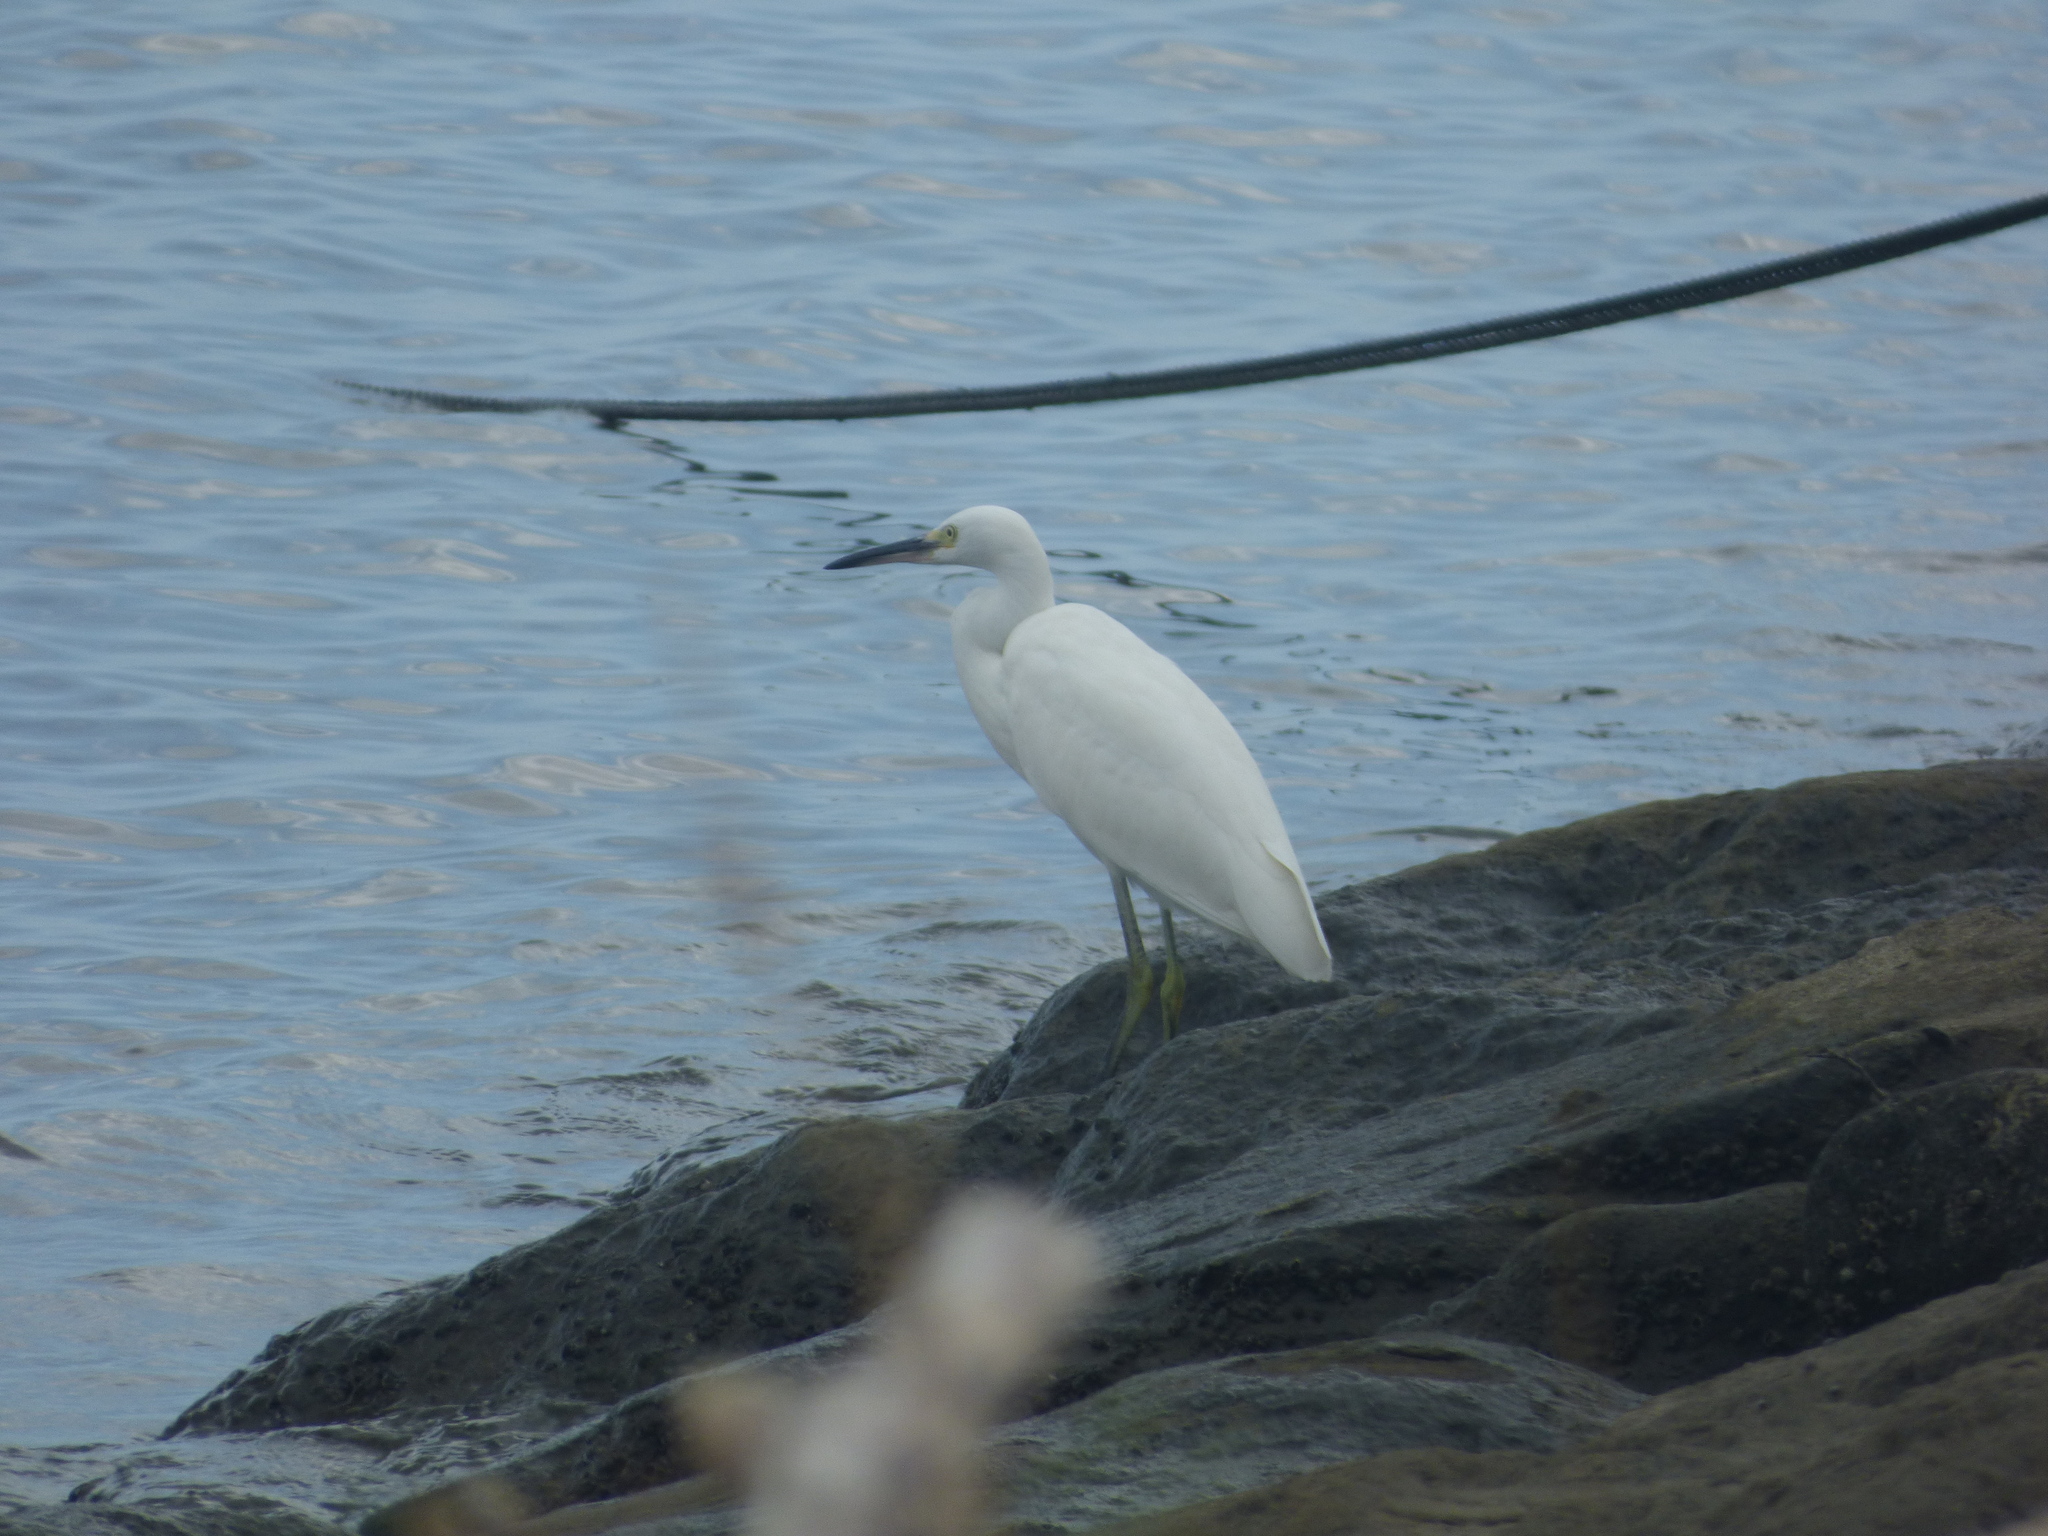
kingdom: Animalia
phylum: Chordata
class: Aves
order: Pelecaniformes
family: Ardeidae
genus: Egretta
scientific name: Egretta garzetta
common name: Little egret
